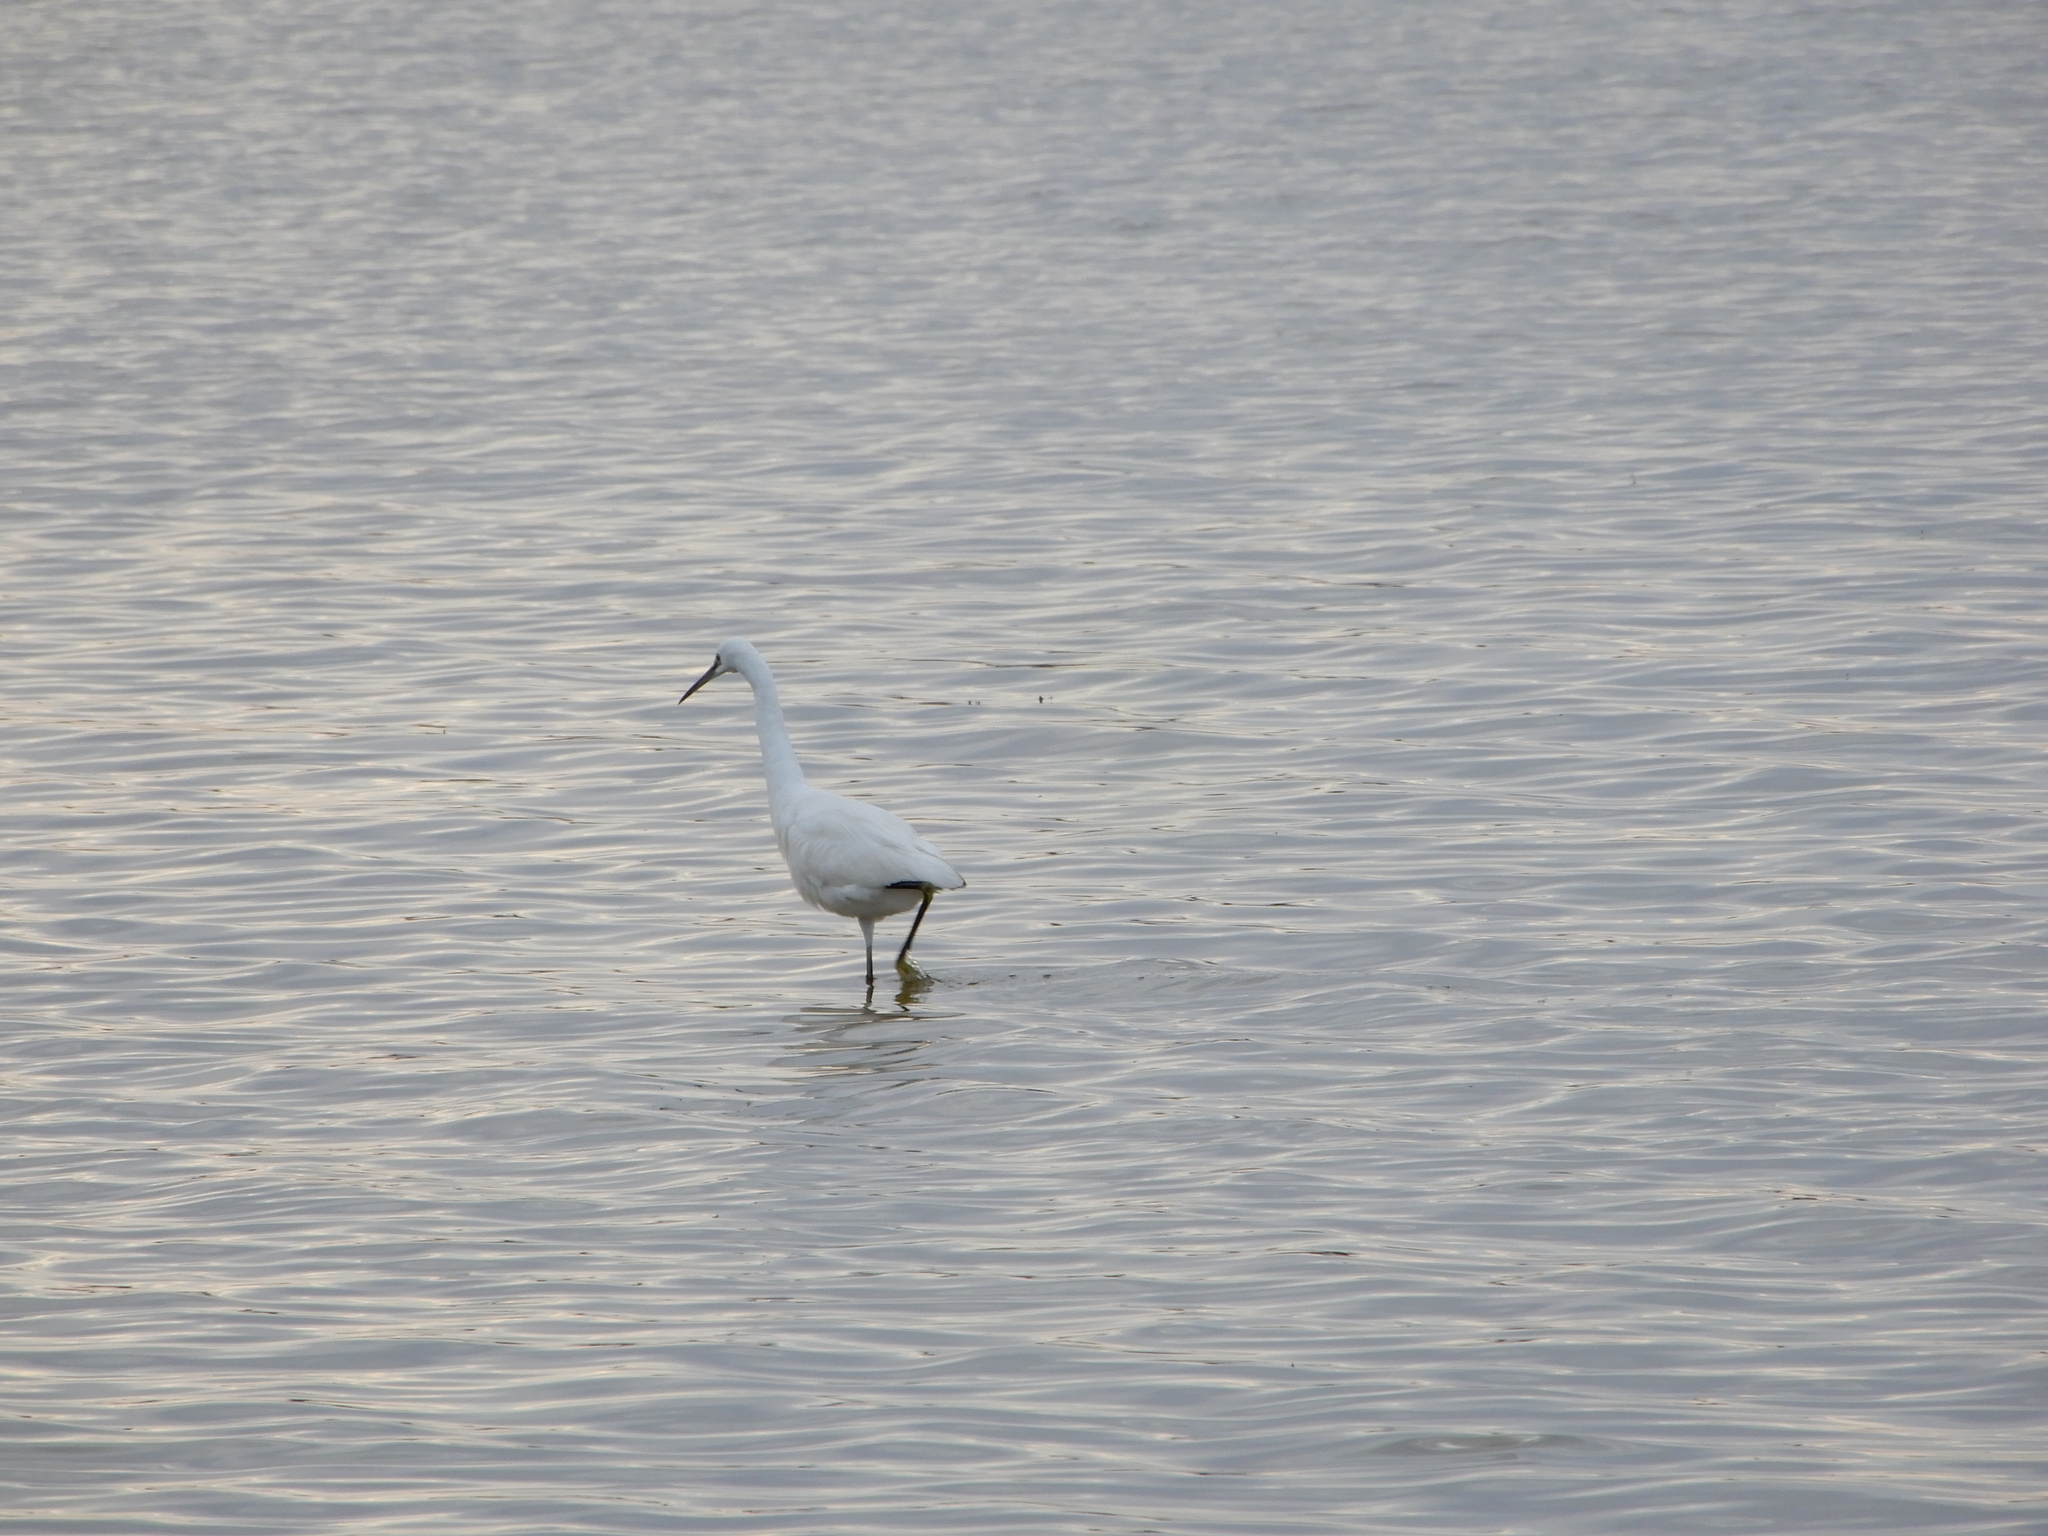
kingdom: Animalia
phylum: Chordata
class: Aves
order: Pelecaniformes
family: Ardeidae
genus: Egretta
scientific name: Egretta garzetta
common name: Little egret
